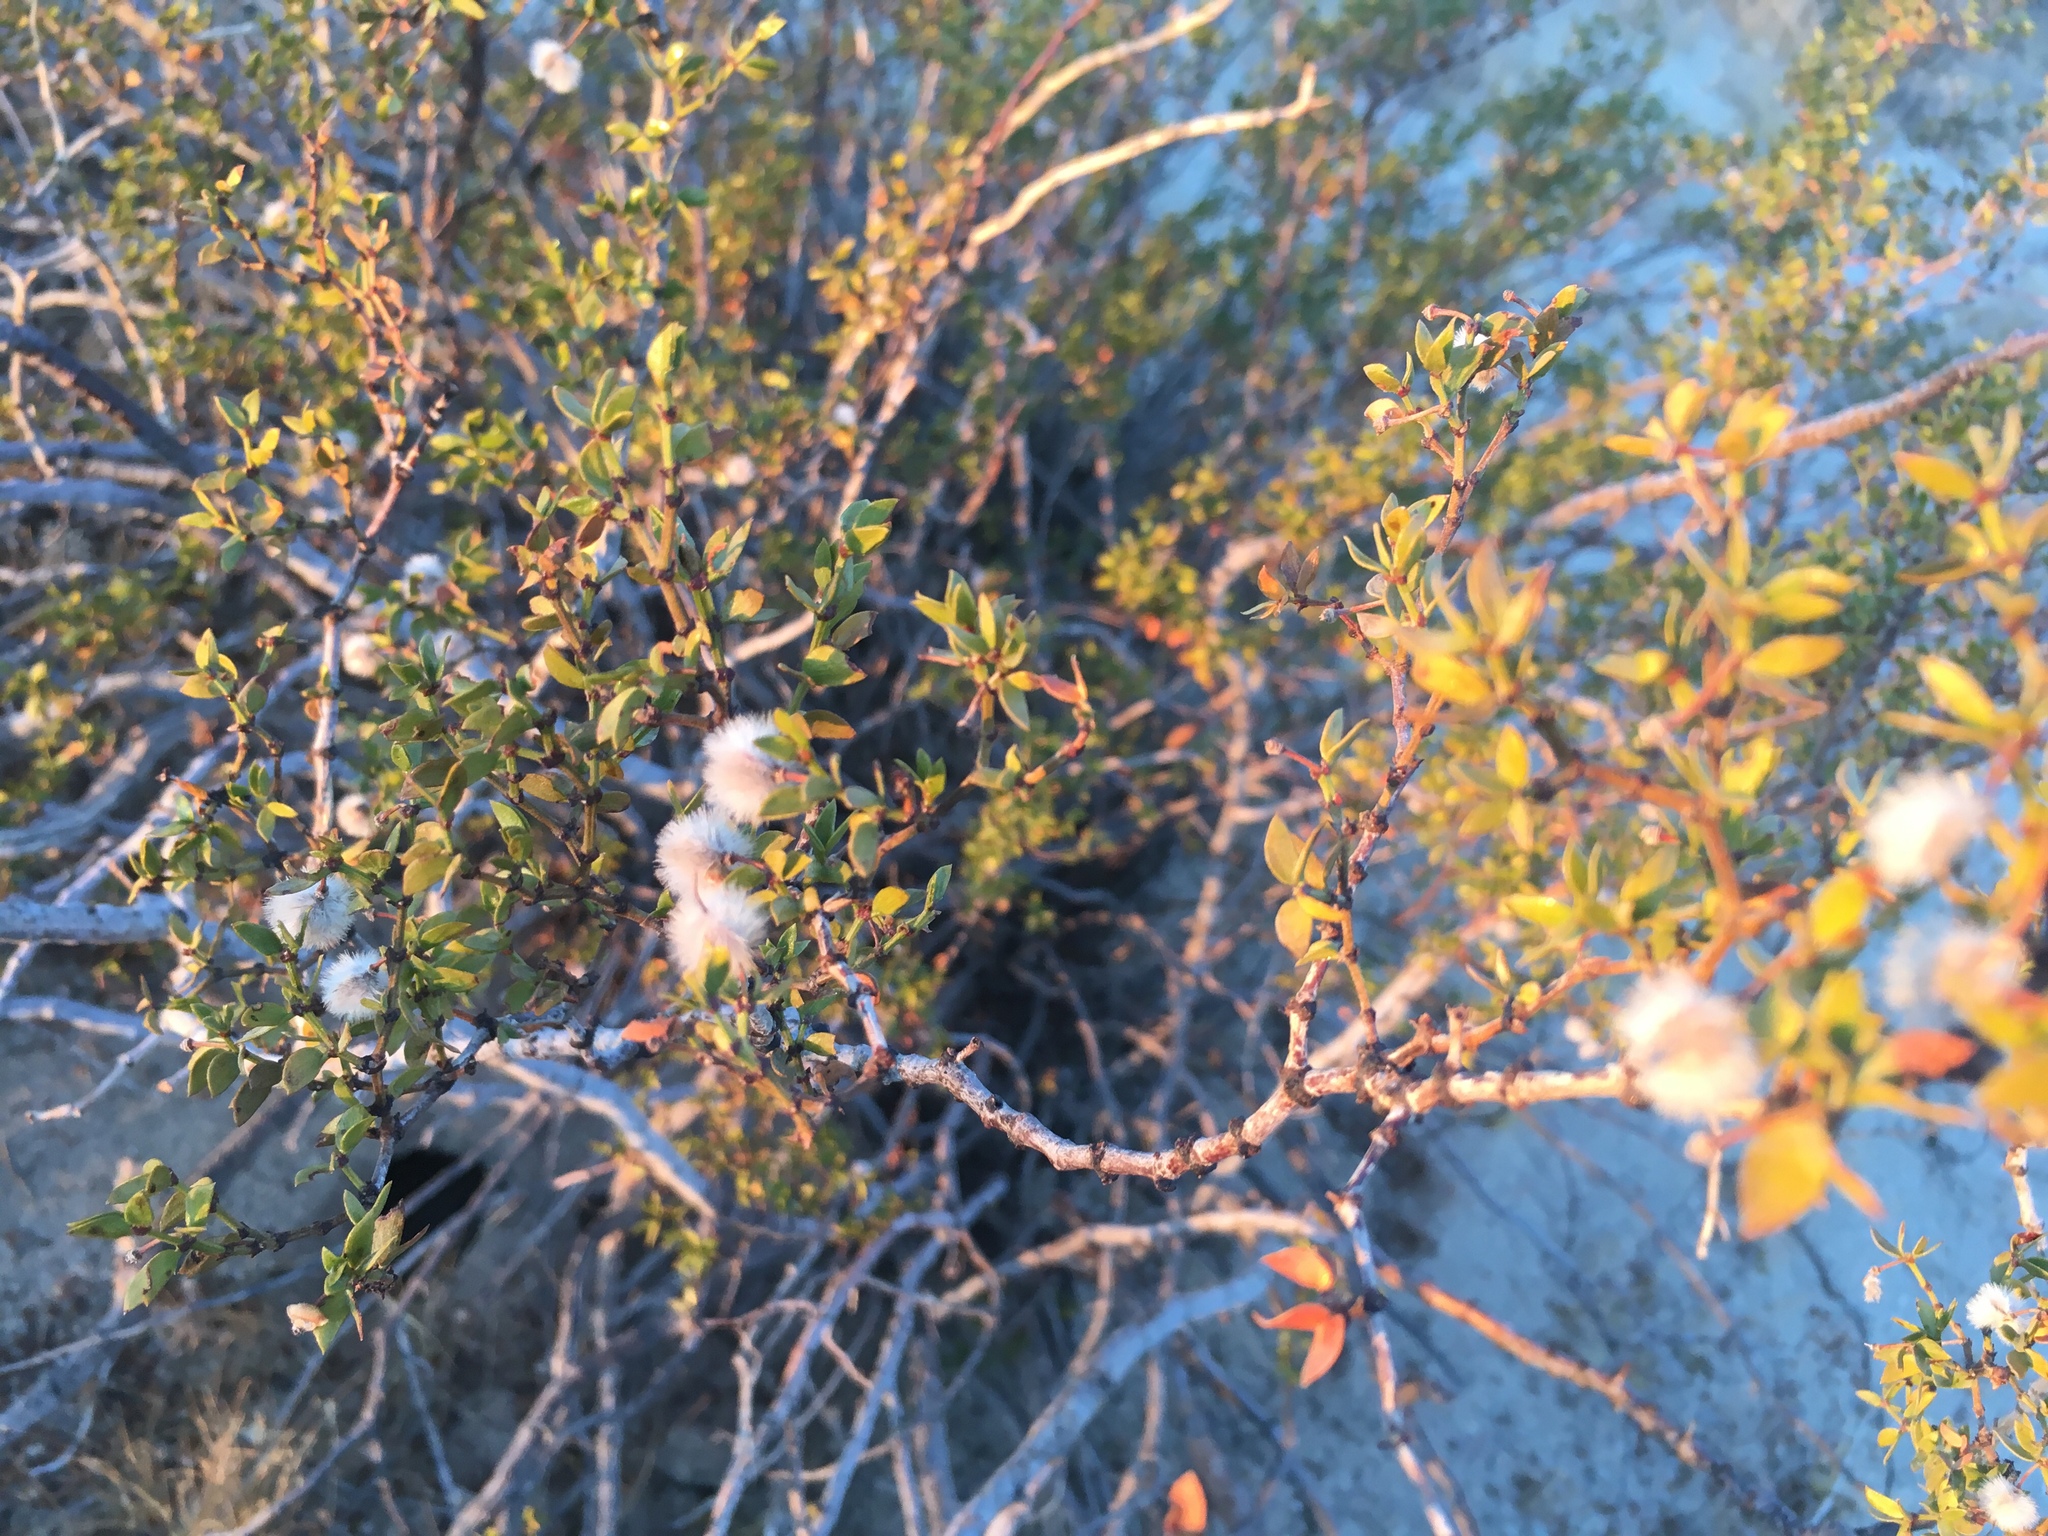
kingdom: Plantae
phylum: Tracheophyta
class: Magnoliopsida
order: Zygophyllales
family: Zygophyllaceae
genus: Larrea
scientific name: Larrea tridentata
